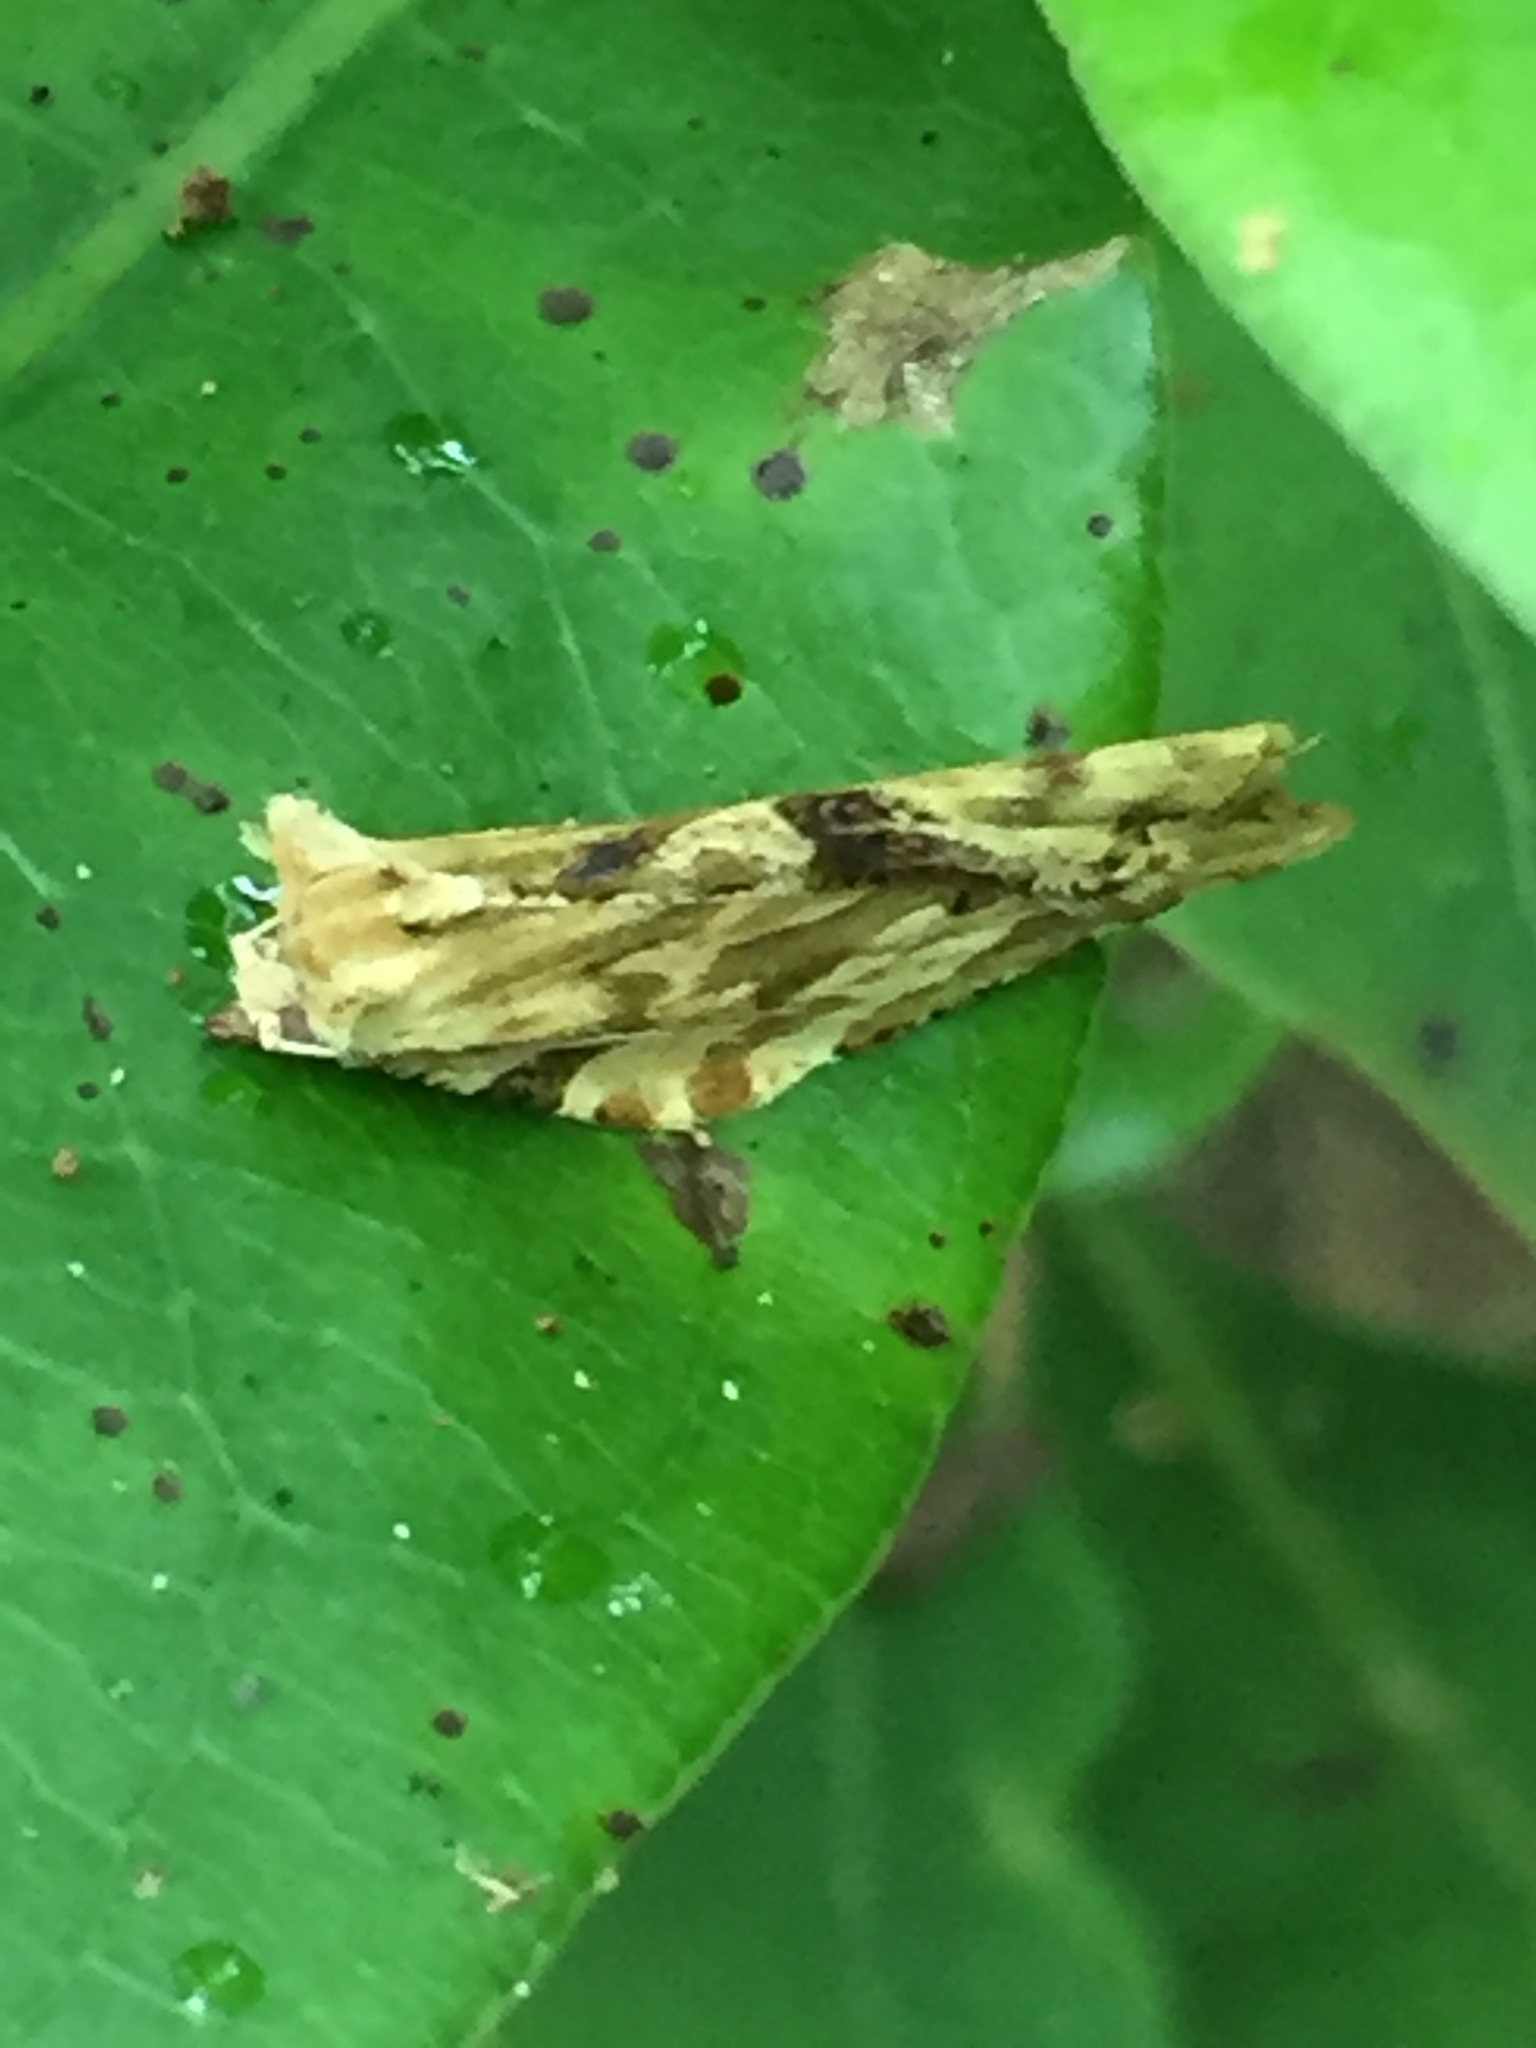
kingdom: Animalia
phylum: Arthropoda
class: Insecta
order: Lepidoptera
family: Tortricidae
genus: Epalxiphora
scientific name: Epalxiphora axenana
